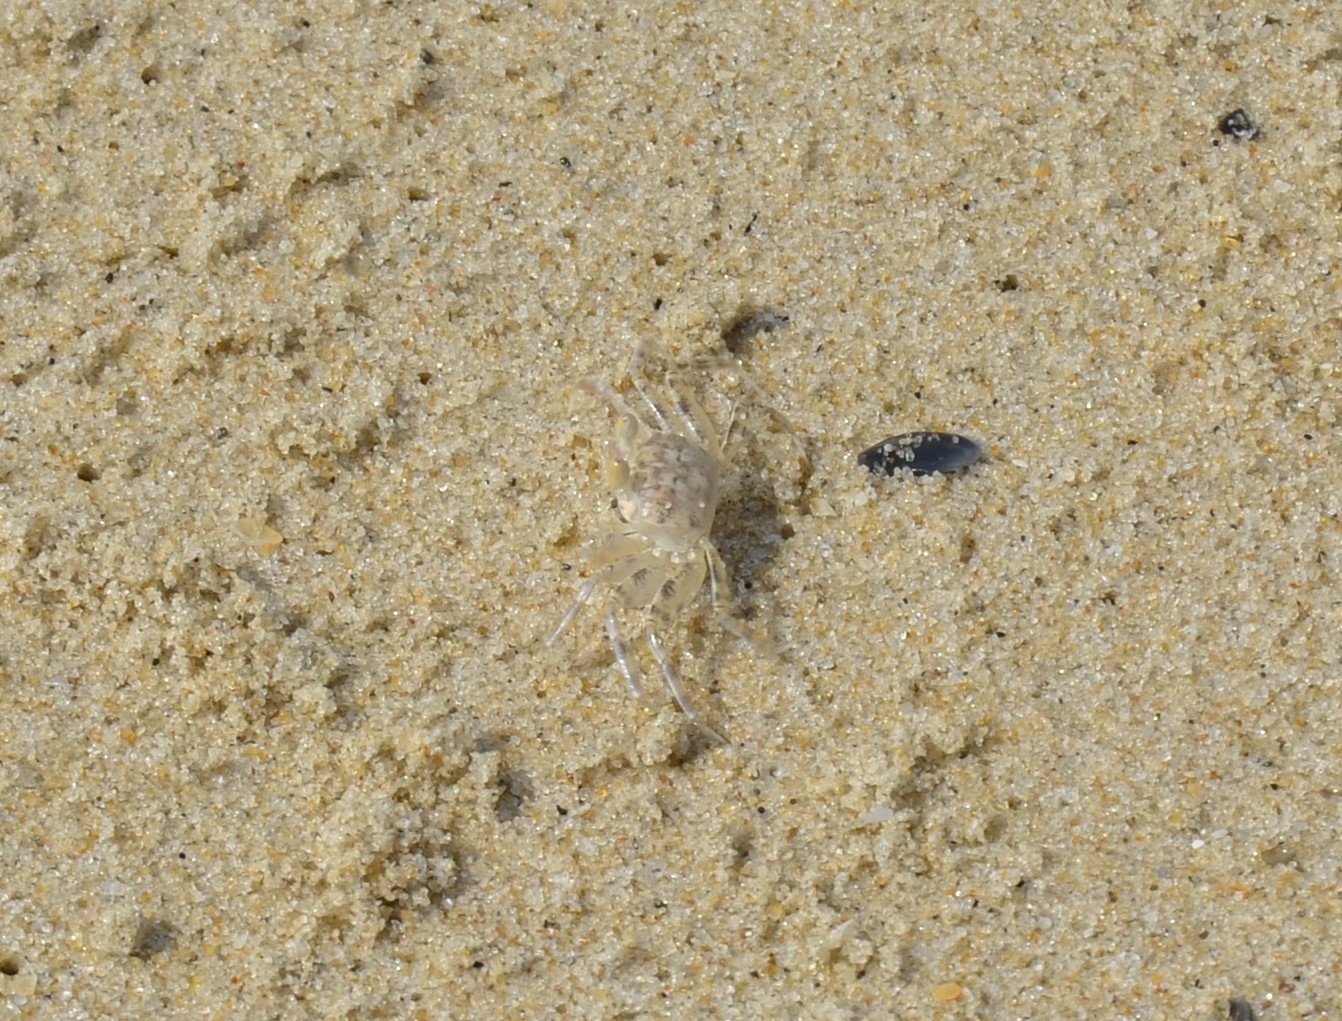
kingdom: Animalia
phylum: Arthropoda
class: Malacostraca
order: Decapoda
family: Ocypodidae
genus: Ocypode
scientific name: Ocypode pallidula
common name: Pallid ghost crab
